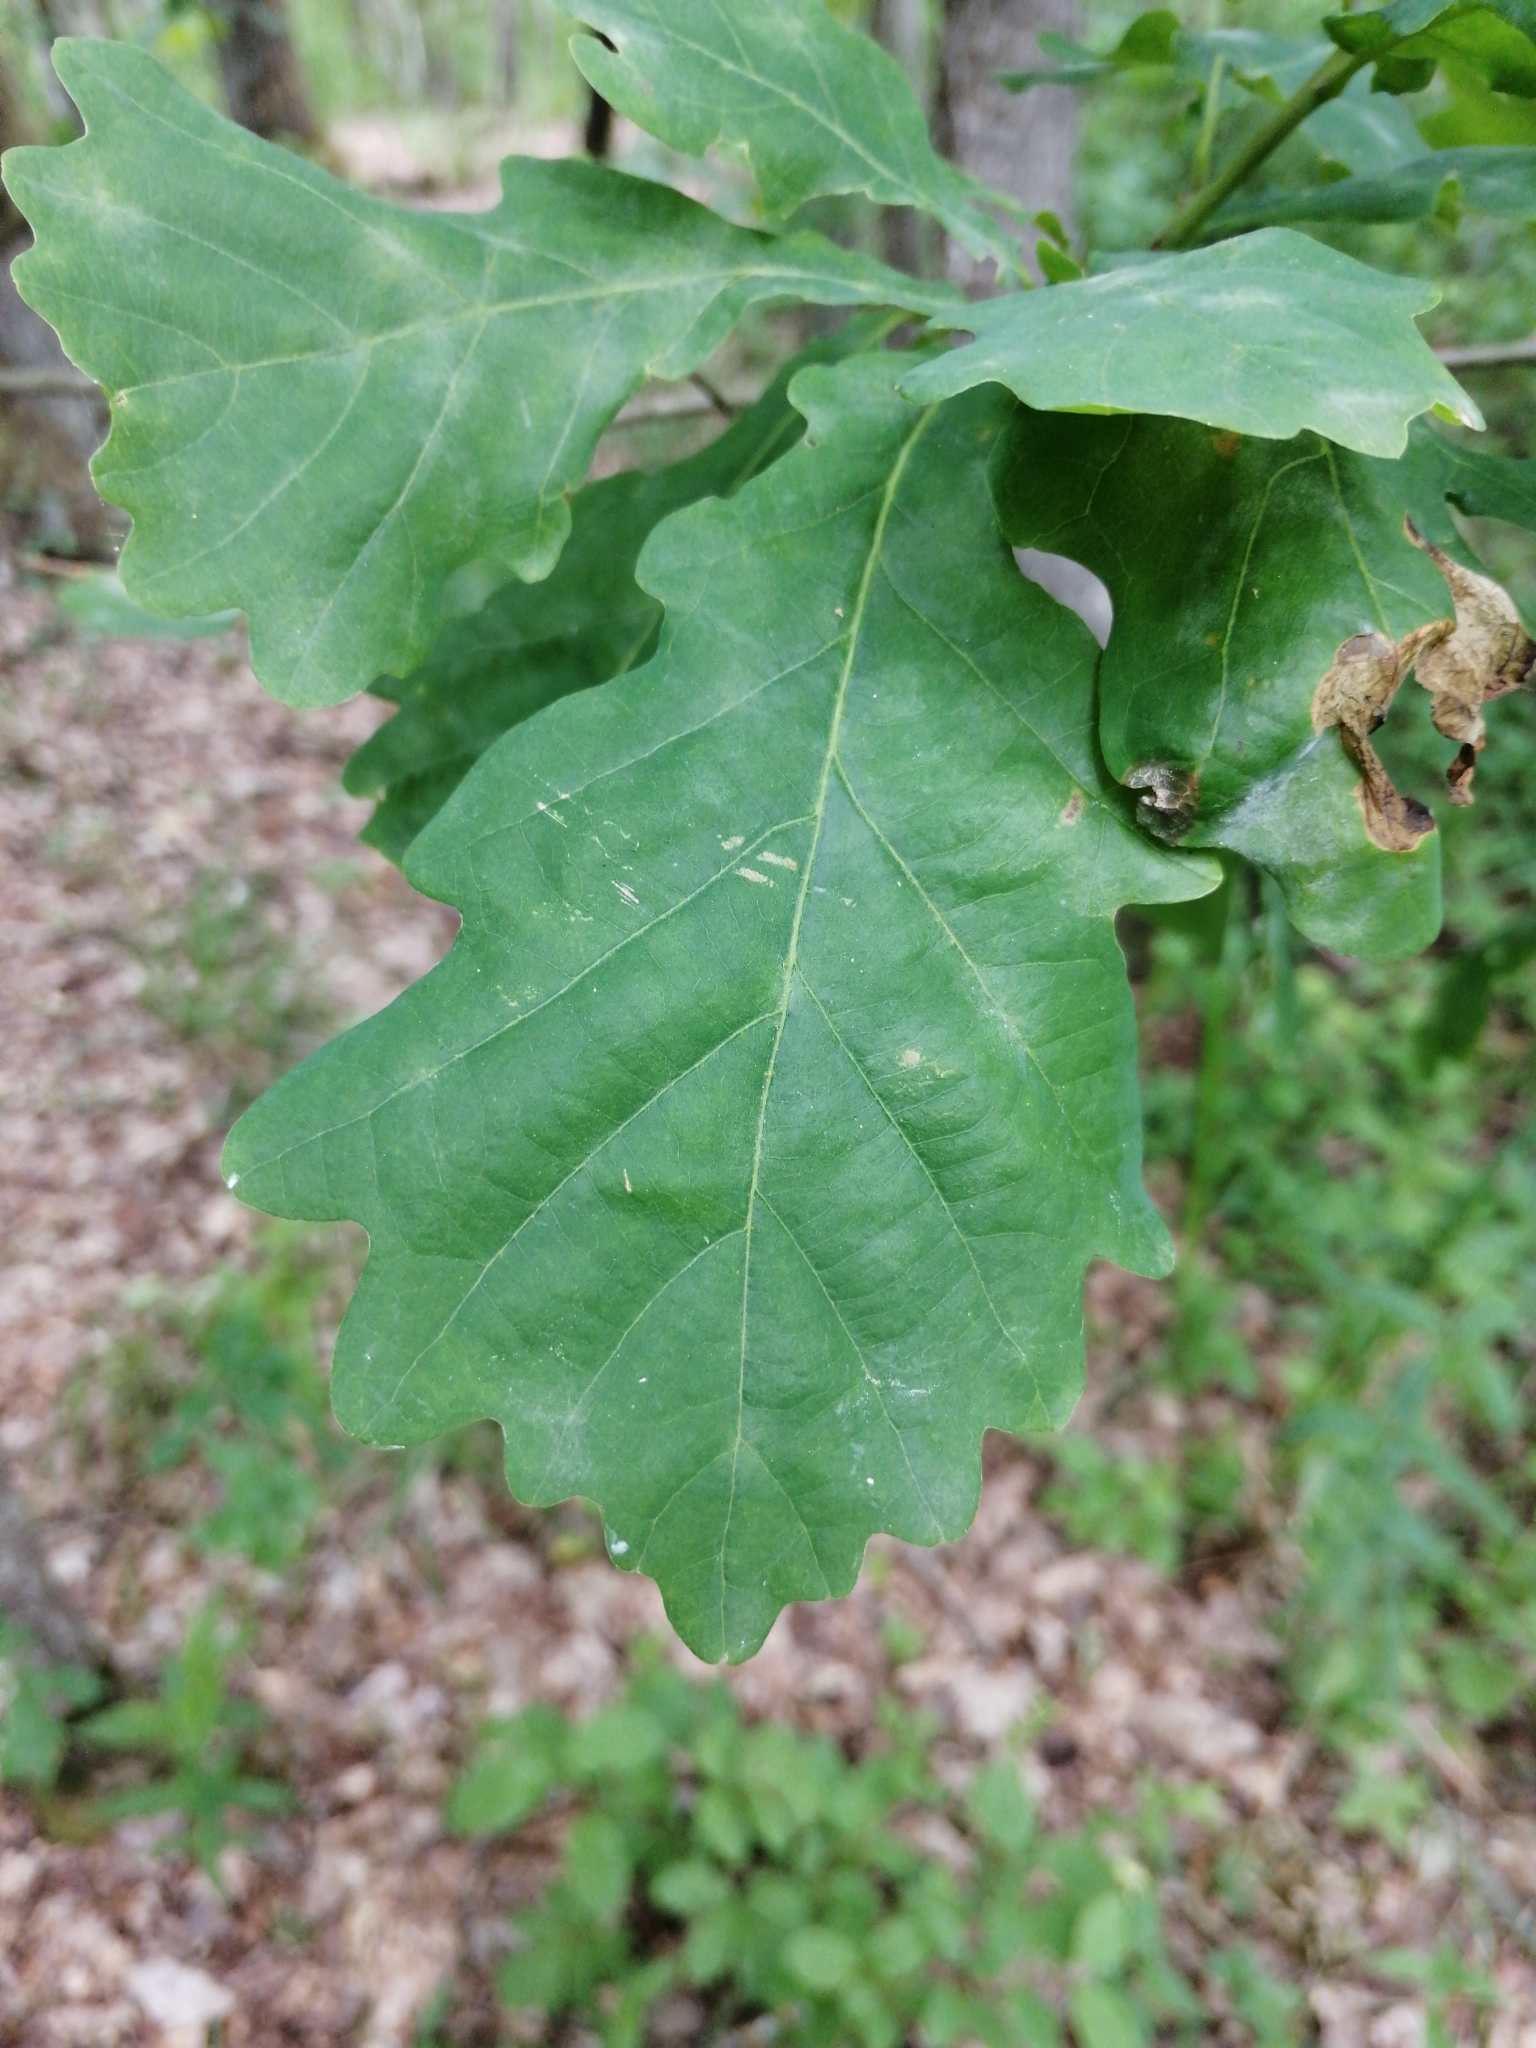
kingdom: Plantae
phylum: Tracheophyta
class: Magnoliopsida
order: Fagales
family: Fagaceae
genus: Quercus
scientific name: Quercus robur
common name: Pedunculate oak
